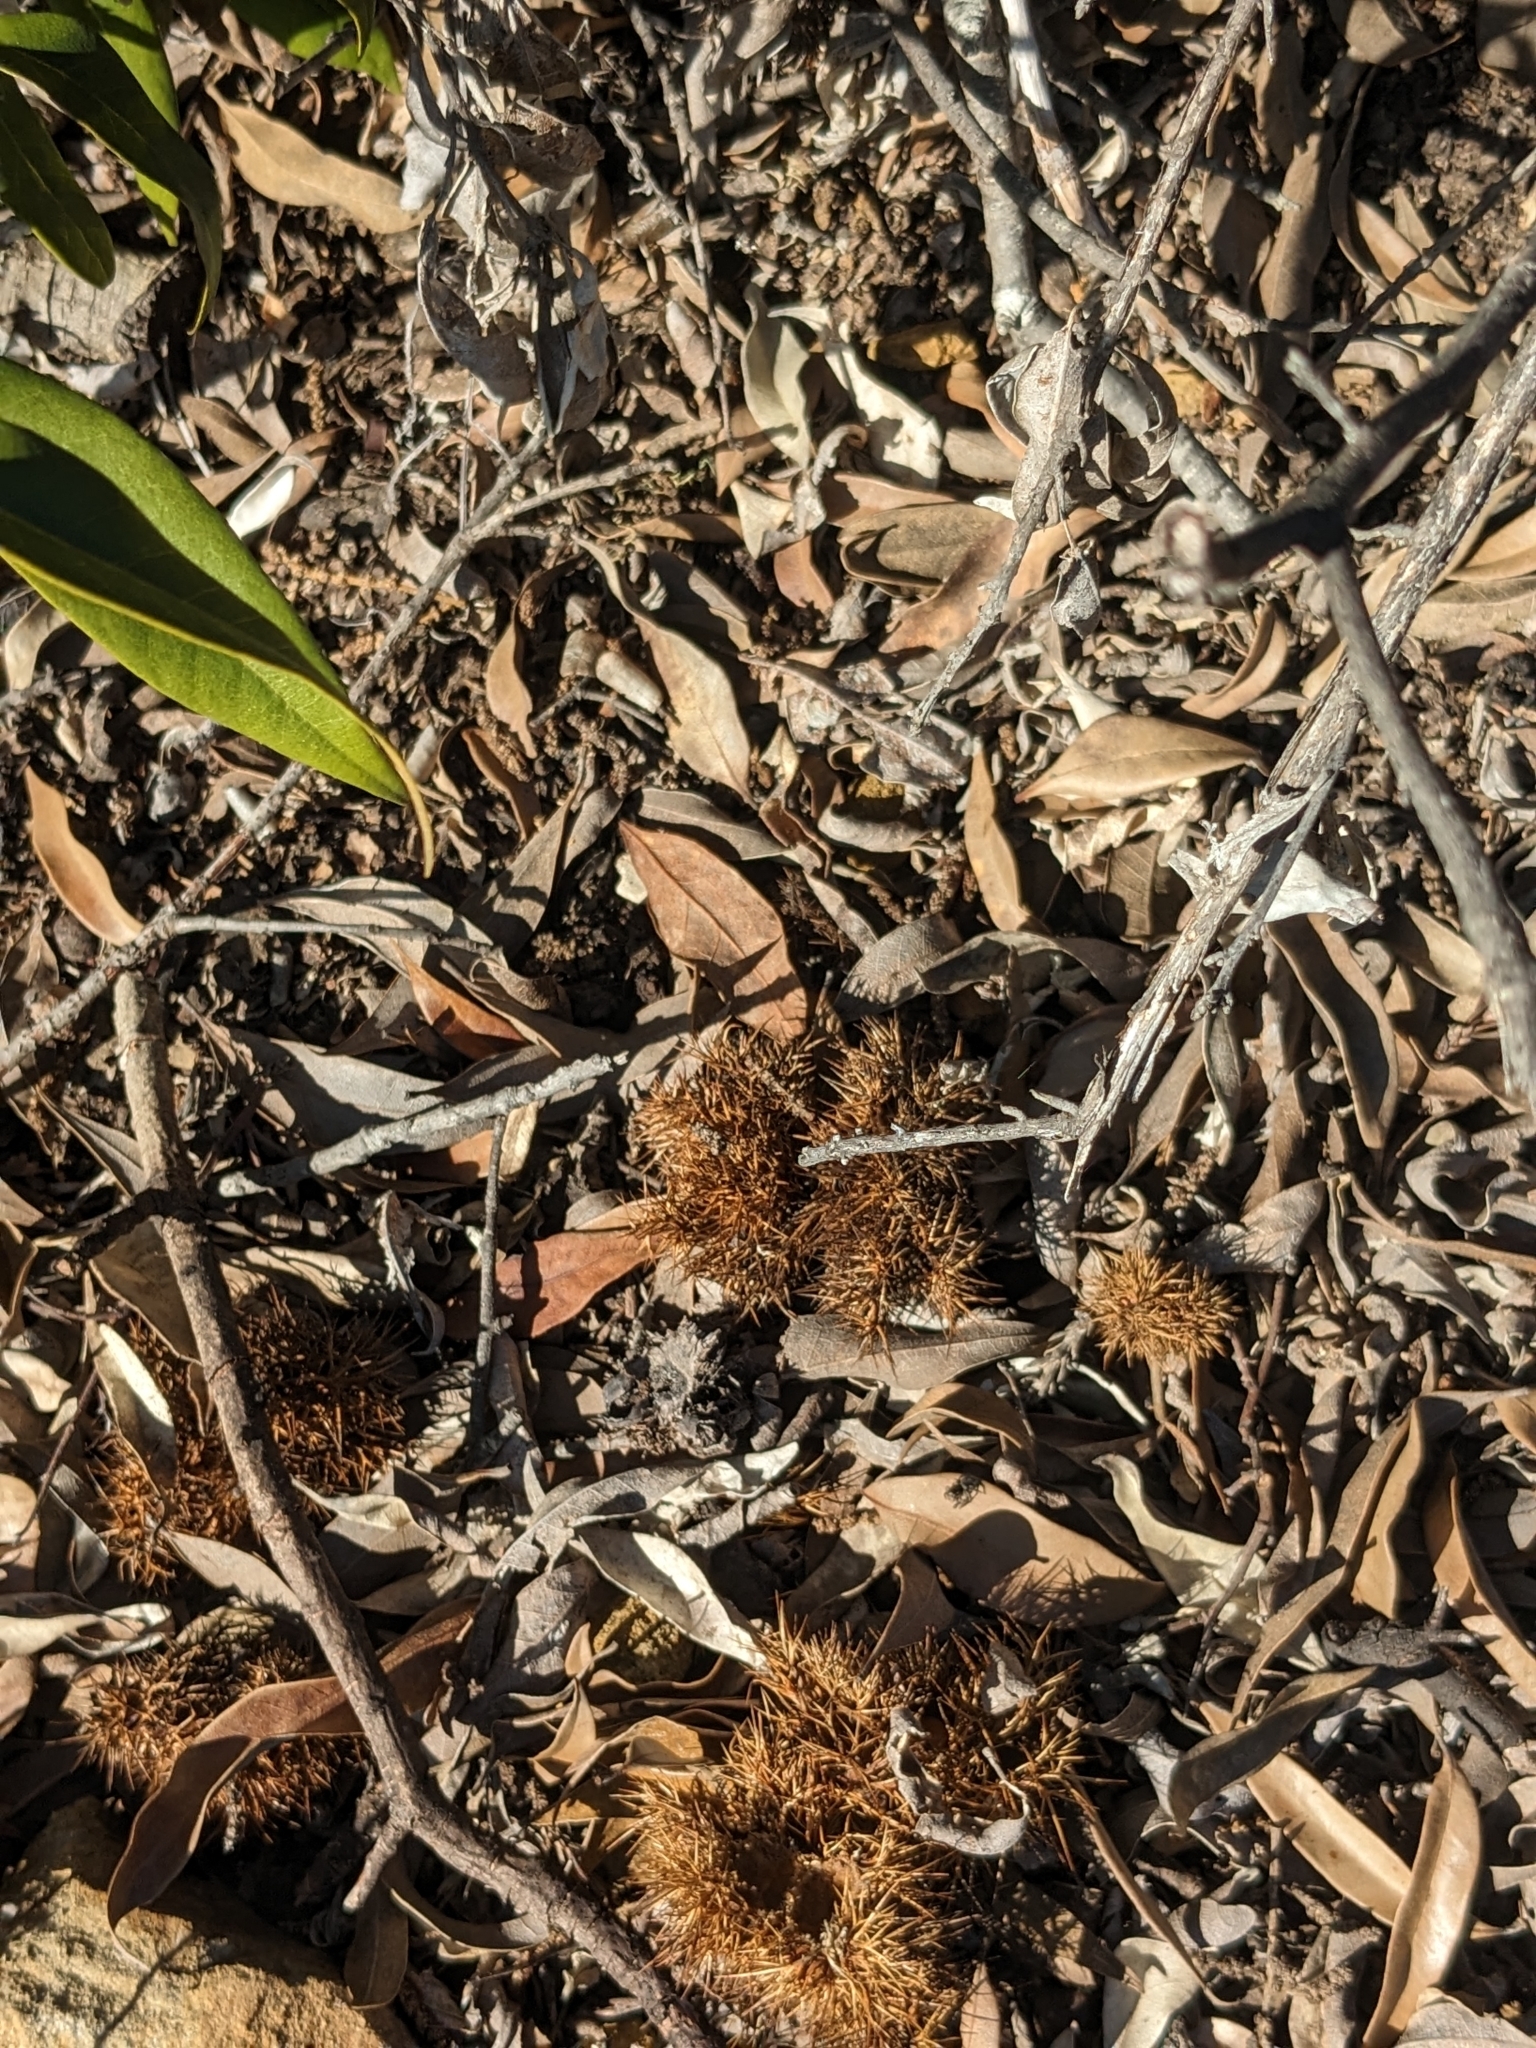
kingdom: Plantae
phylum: Tracheophyta
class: Magnoliopsida
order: Fagales
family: Fagaceae
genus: Chrysolepis
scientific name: Chrysolepis chrysophylla
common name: Giant chinquapin
